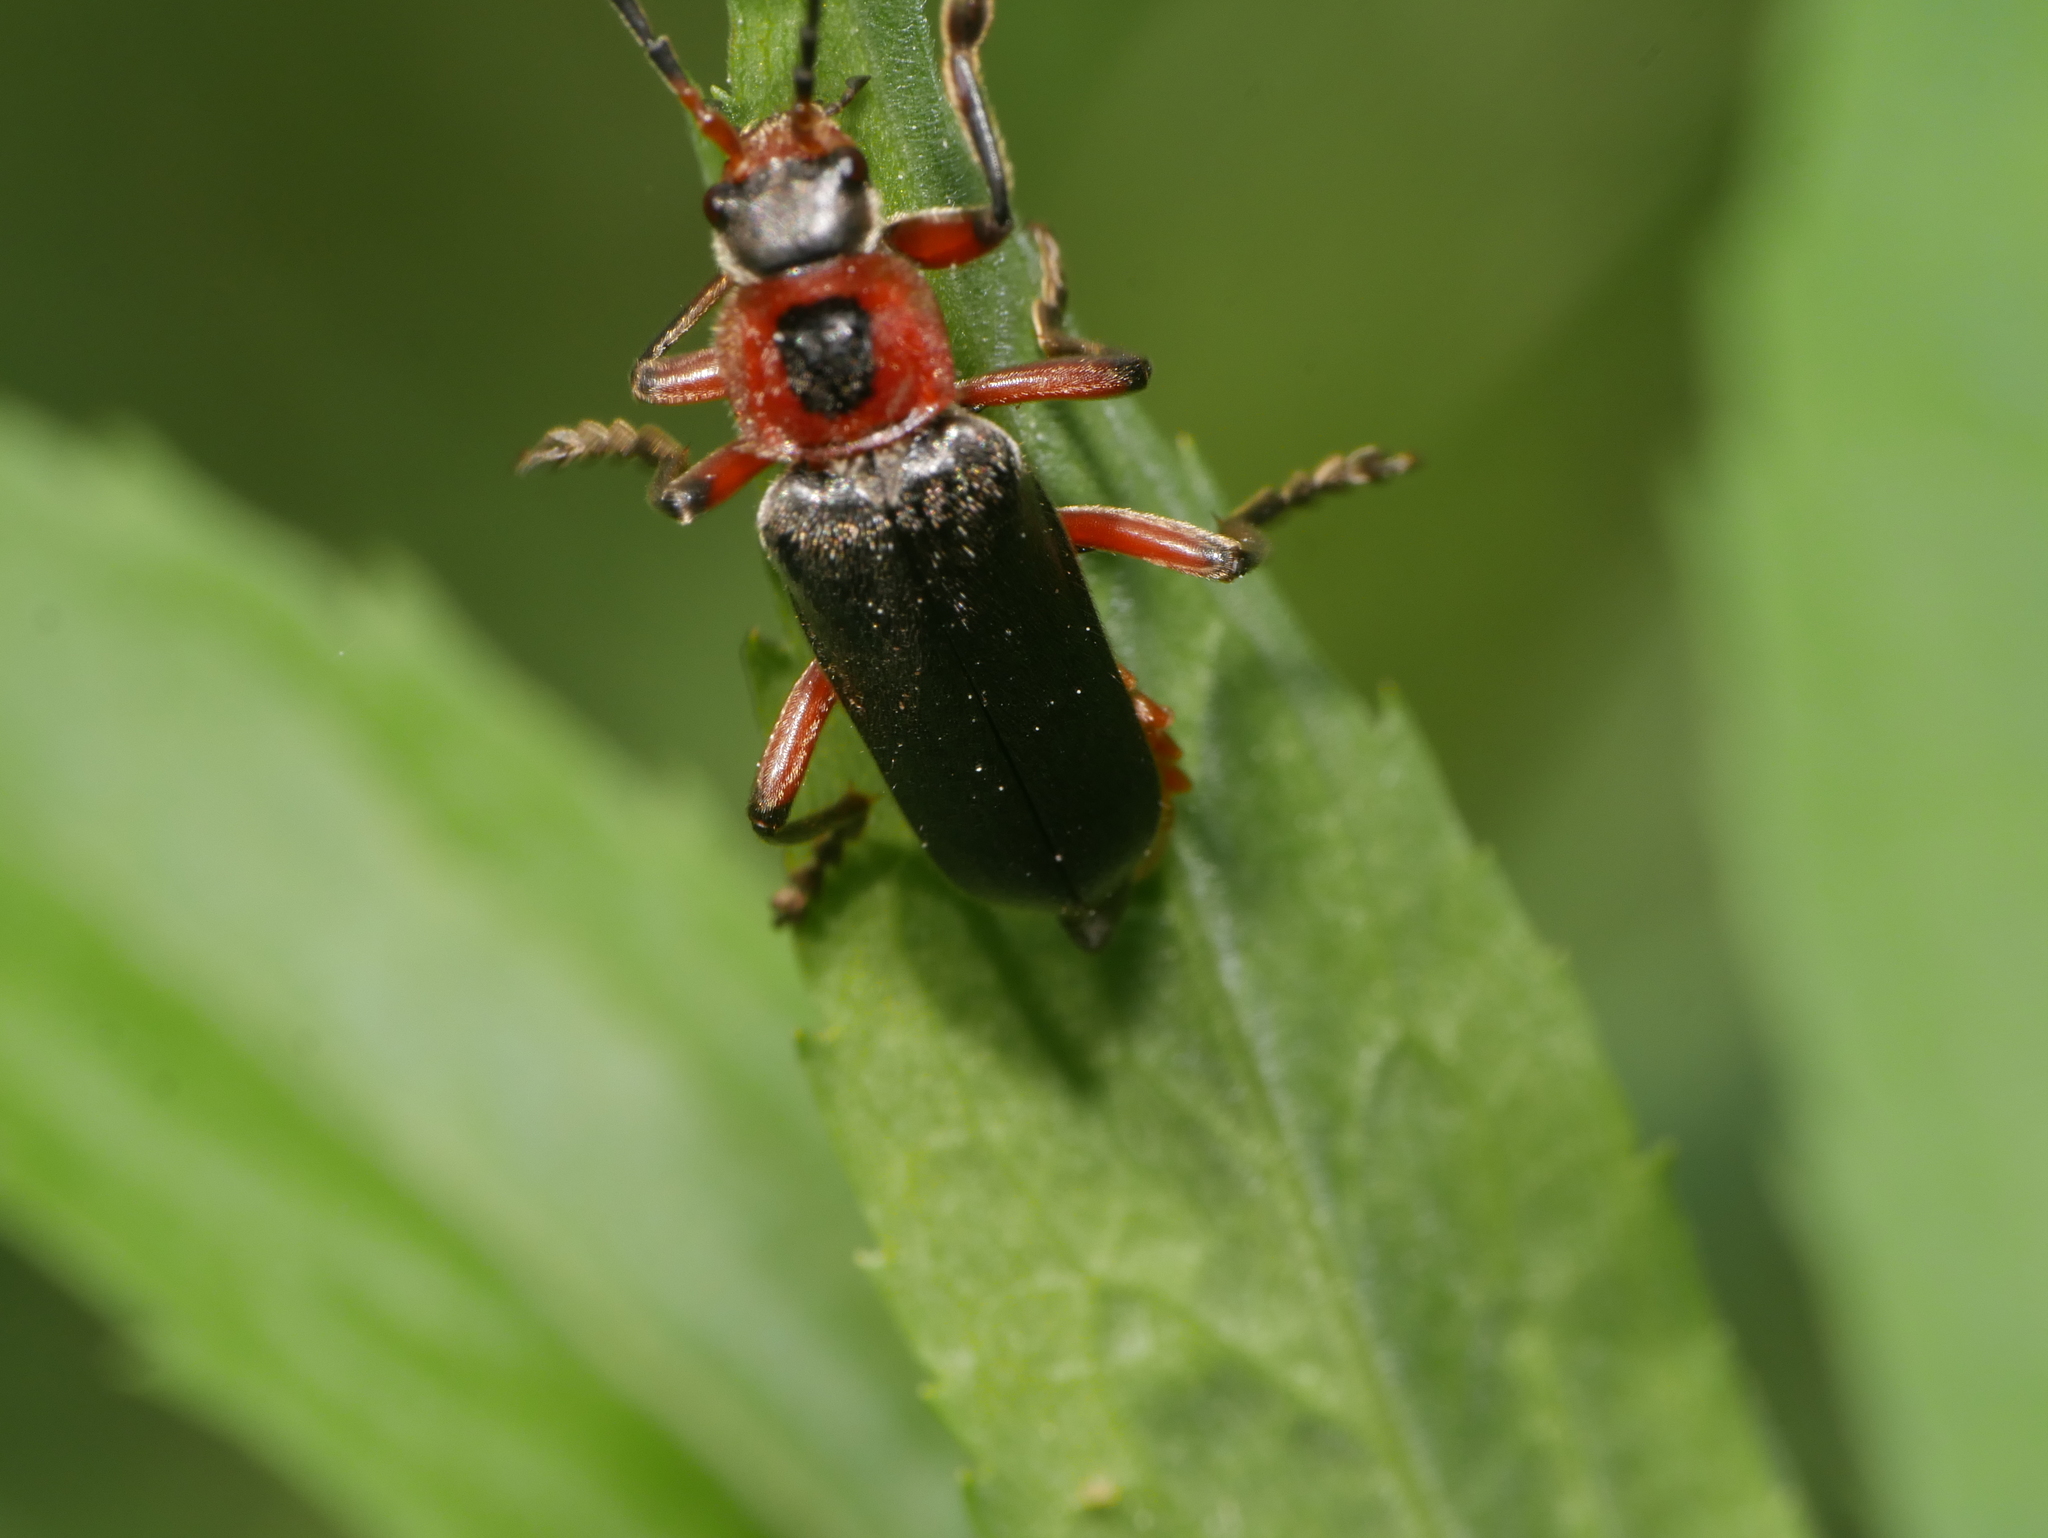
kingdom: Animalia
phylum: Arthropoda
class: Insecta
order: Coleoptera
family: Cantharidae
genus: Cantharis
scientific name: Cantharis rustica
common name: Soldier beetle
